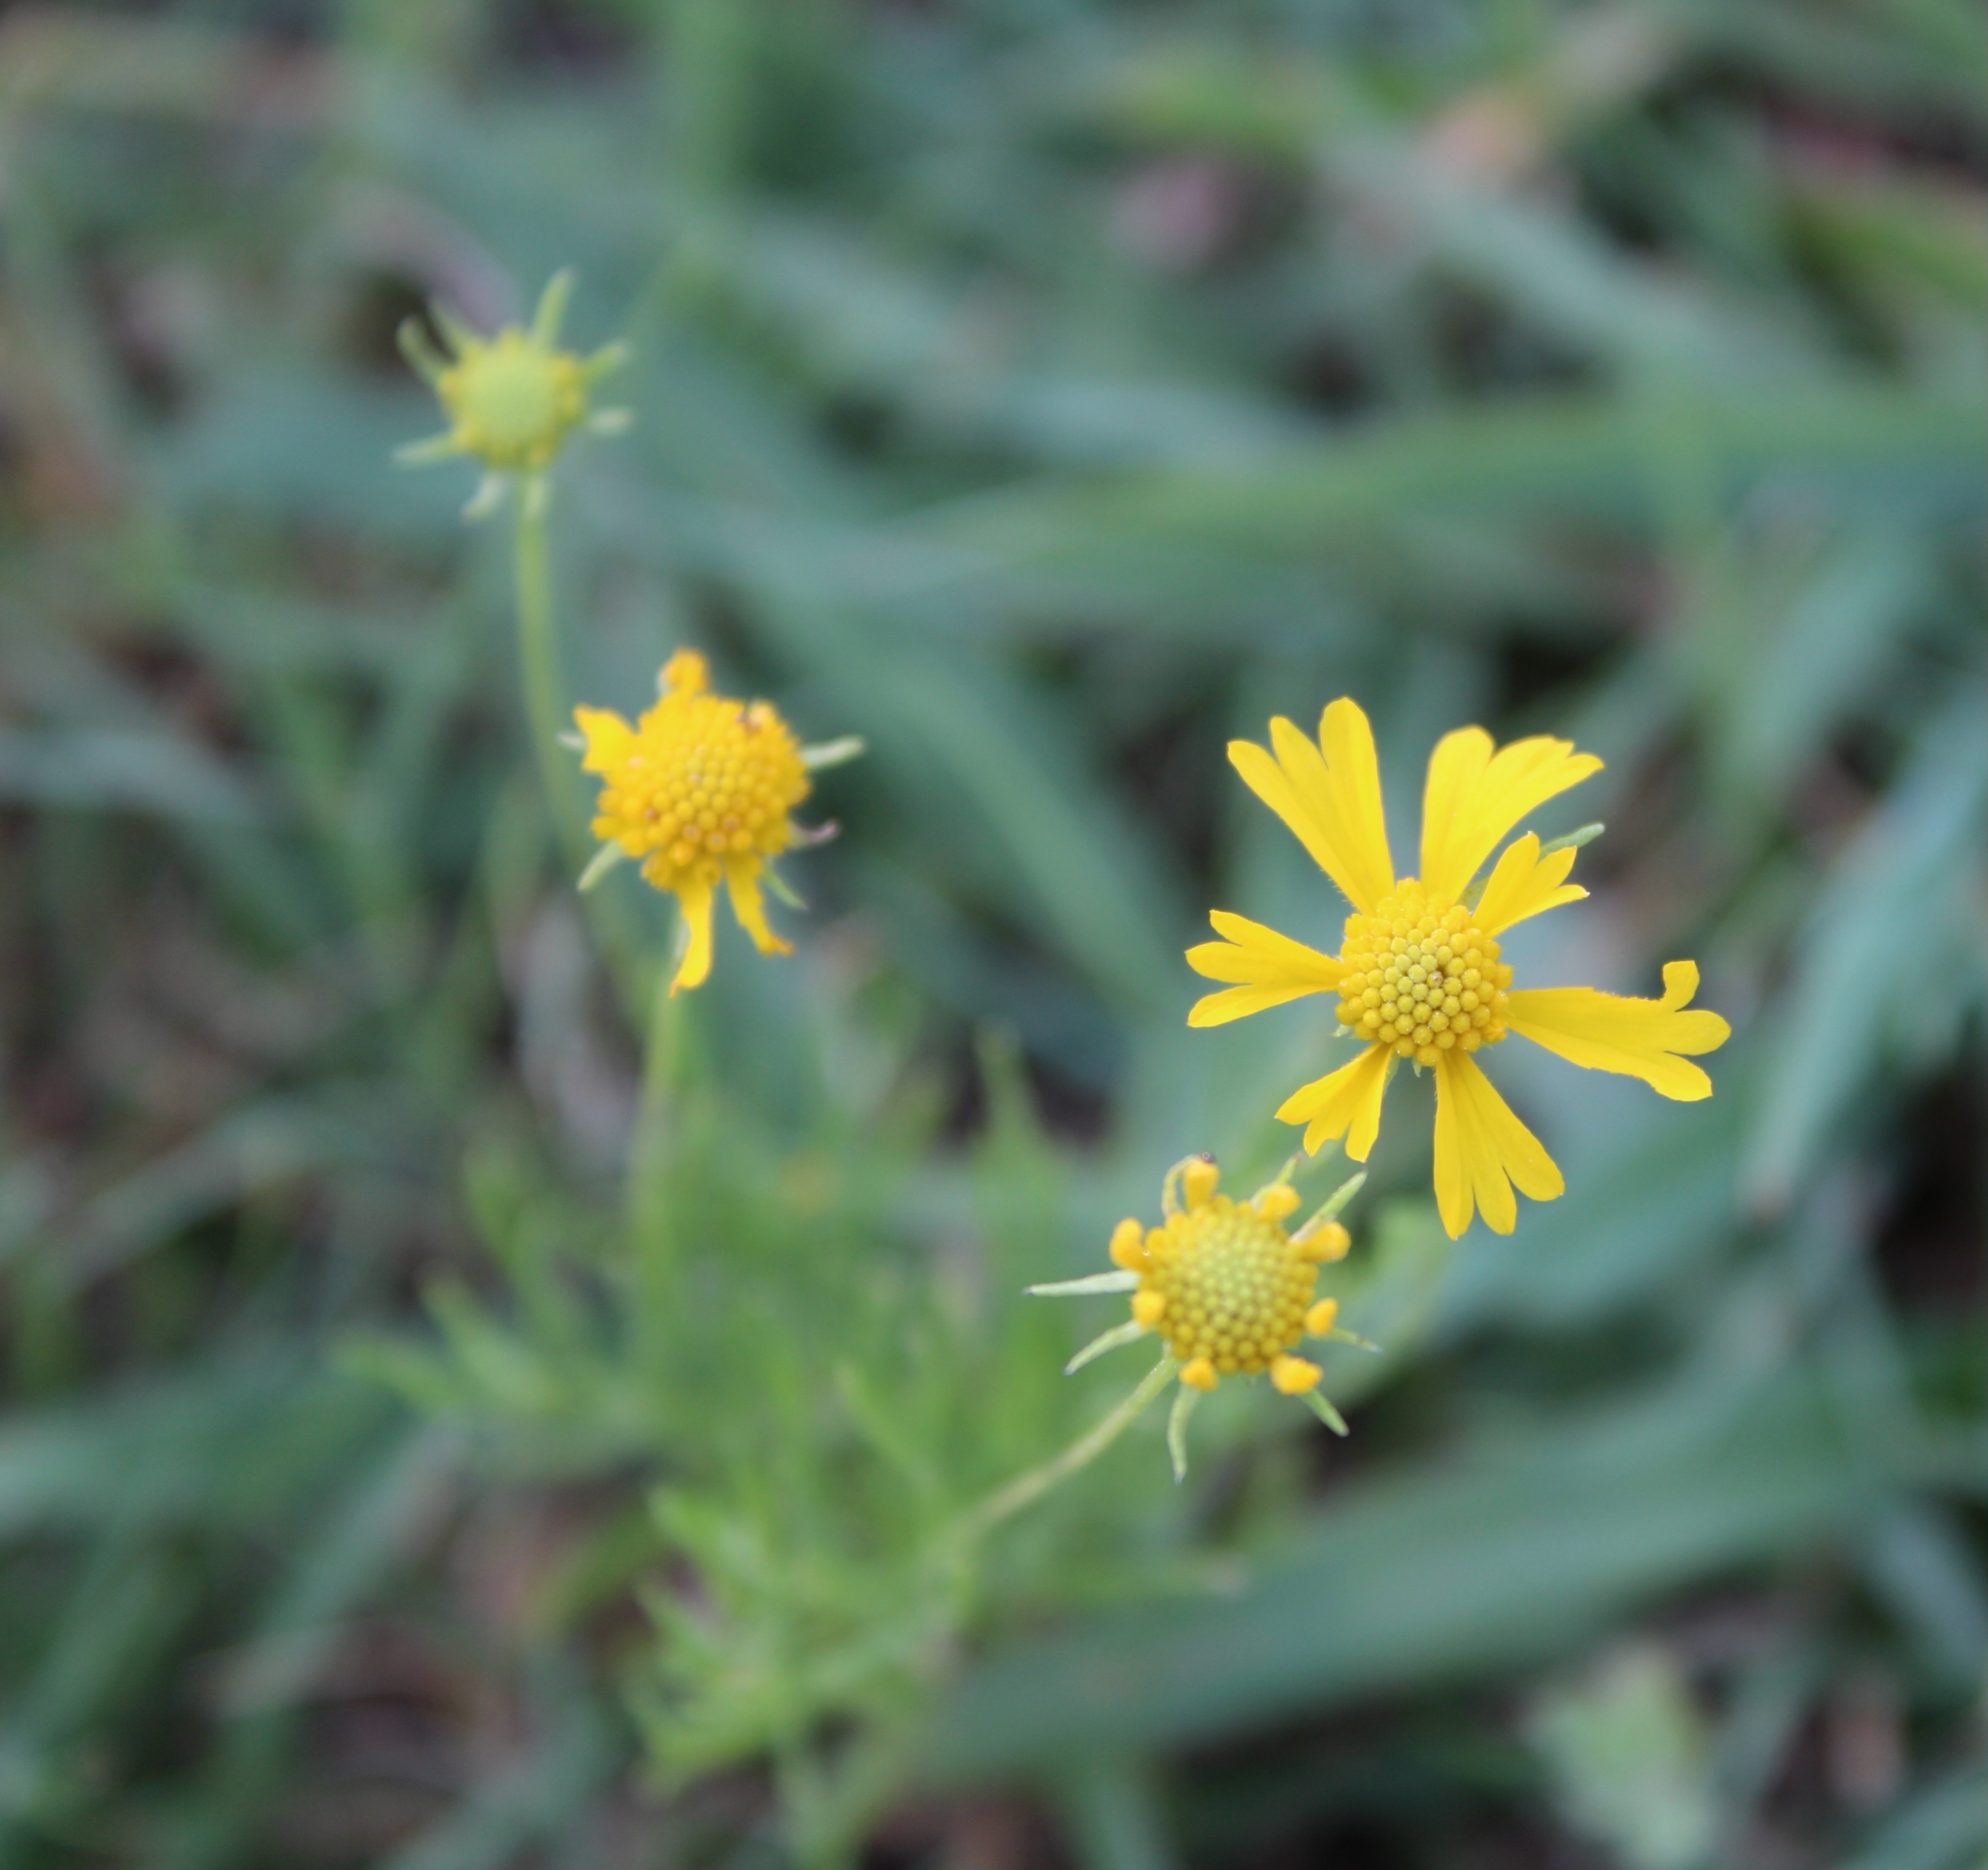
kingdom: Plantae
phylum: Tracheophyta
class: Magnoliopsida
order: Asterales
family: Asteraceae
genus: Helenium
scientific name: Helenium amarum
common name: Bitter sneezeweed
